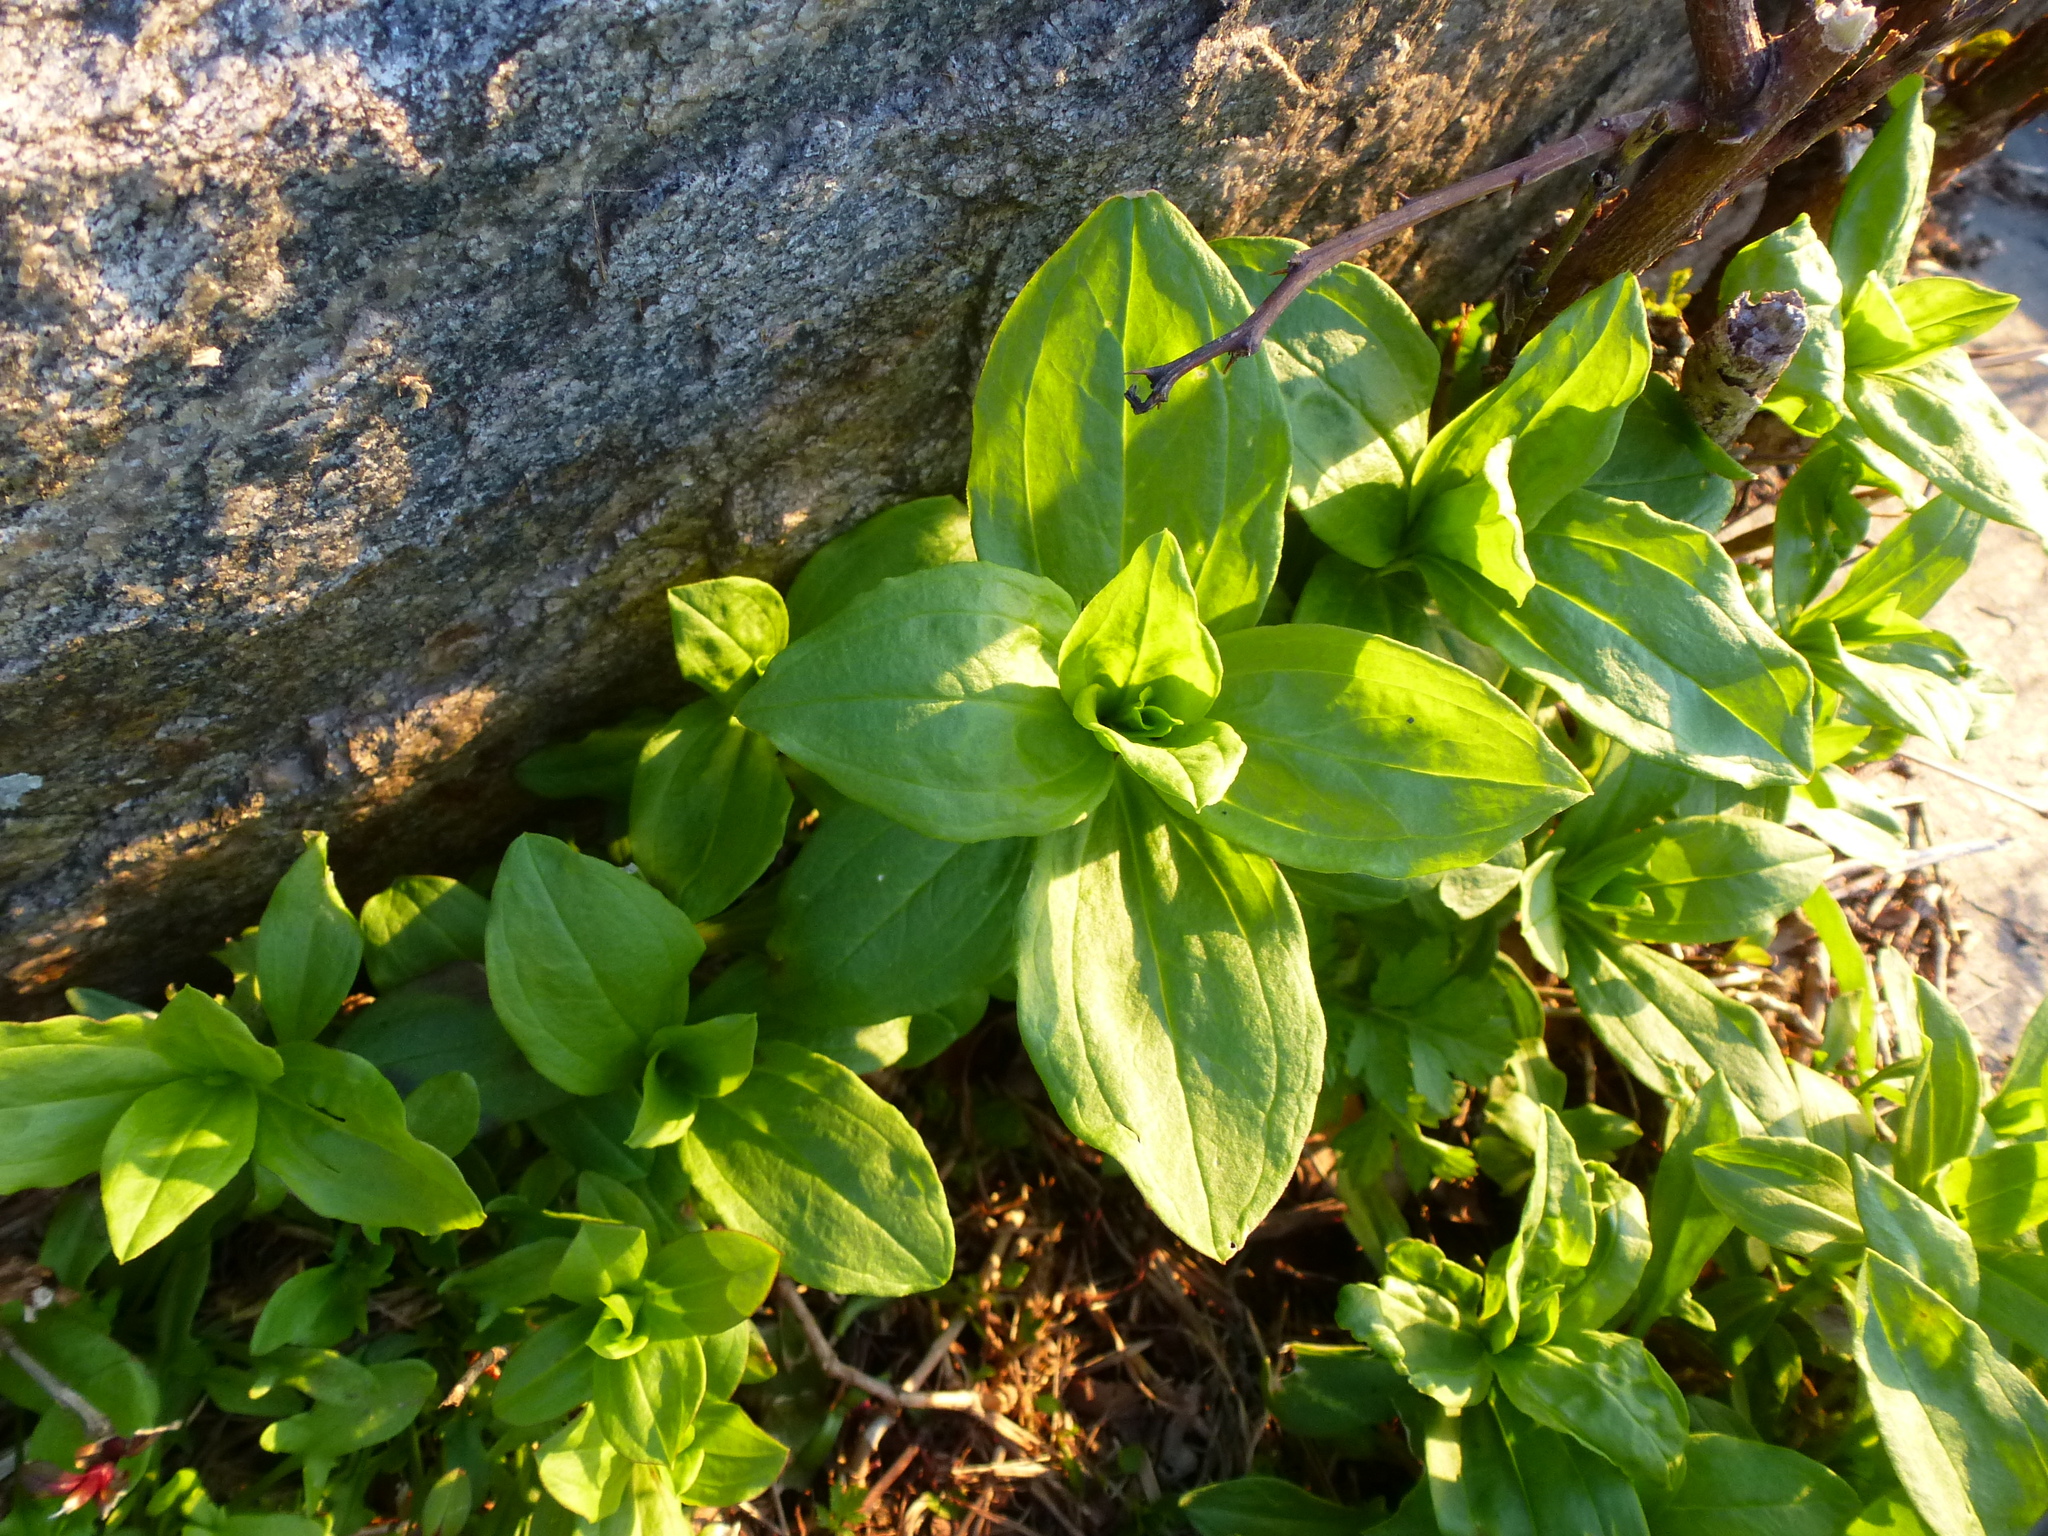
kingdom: Plantae
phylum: Tracheophyta
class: Magnoliopsida
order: Caryophyllales
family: Nyctaginaceae
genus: Mirabilis
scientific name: Mirabilis nyctaginea
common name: Umbrella wort
